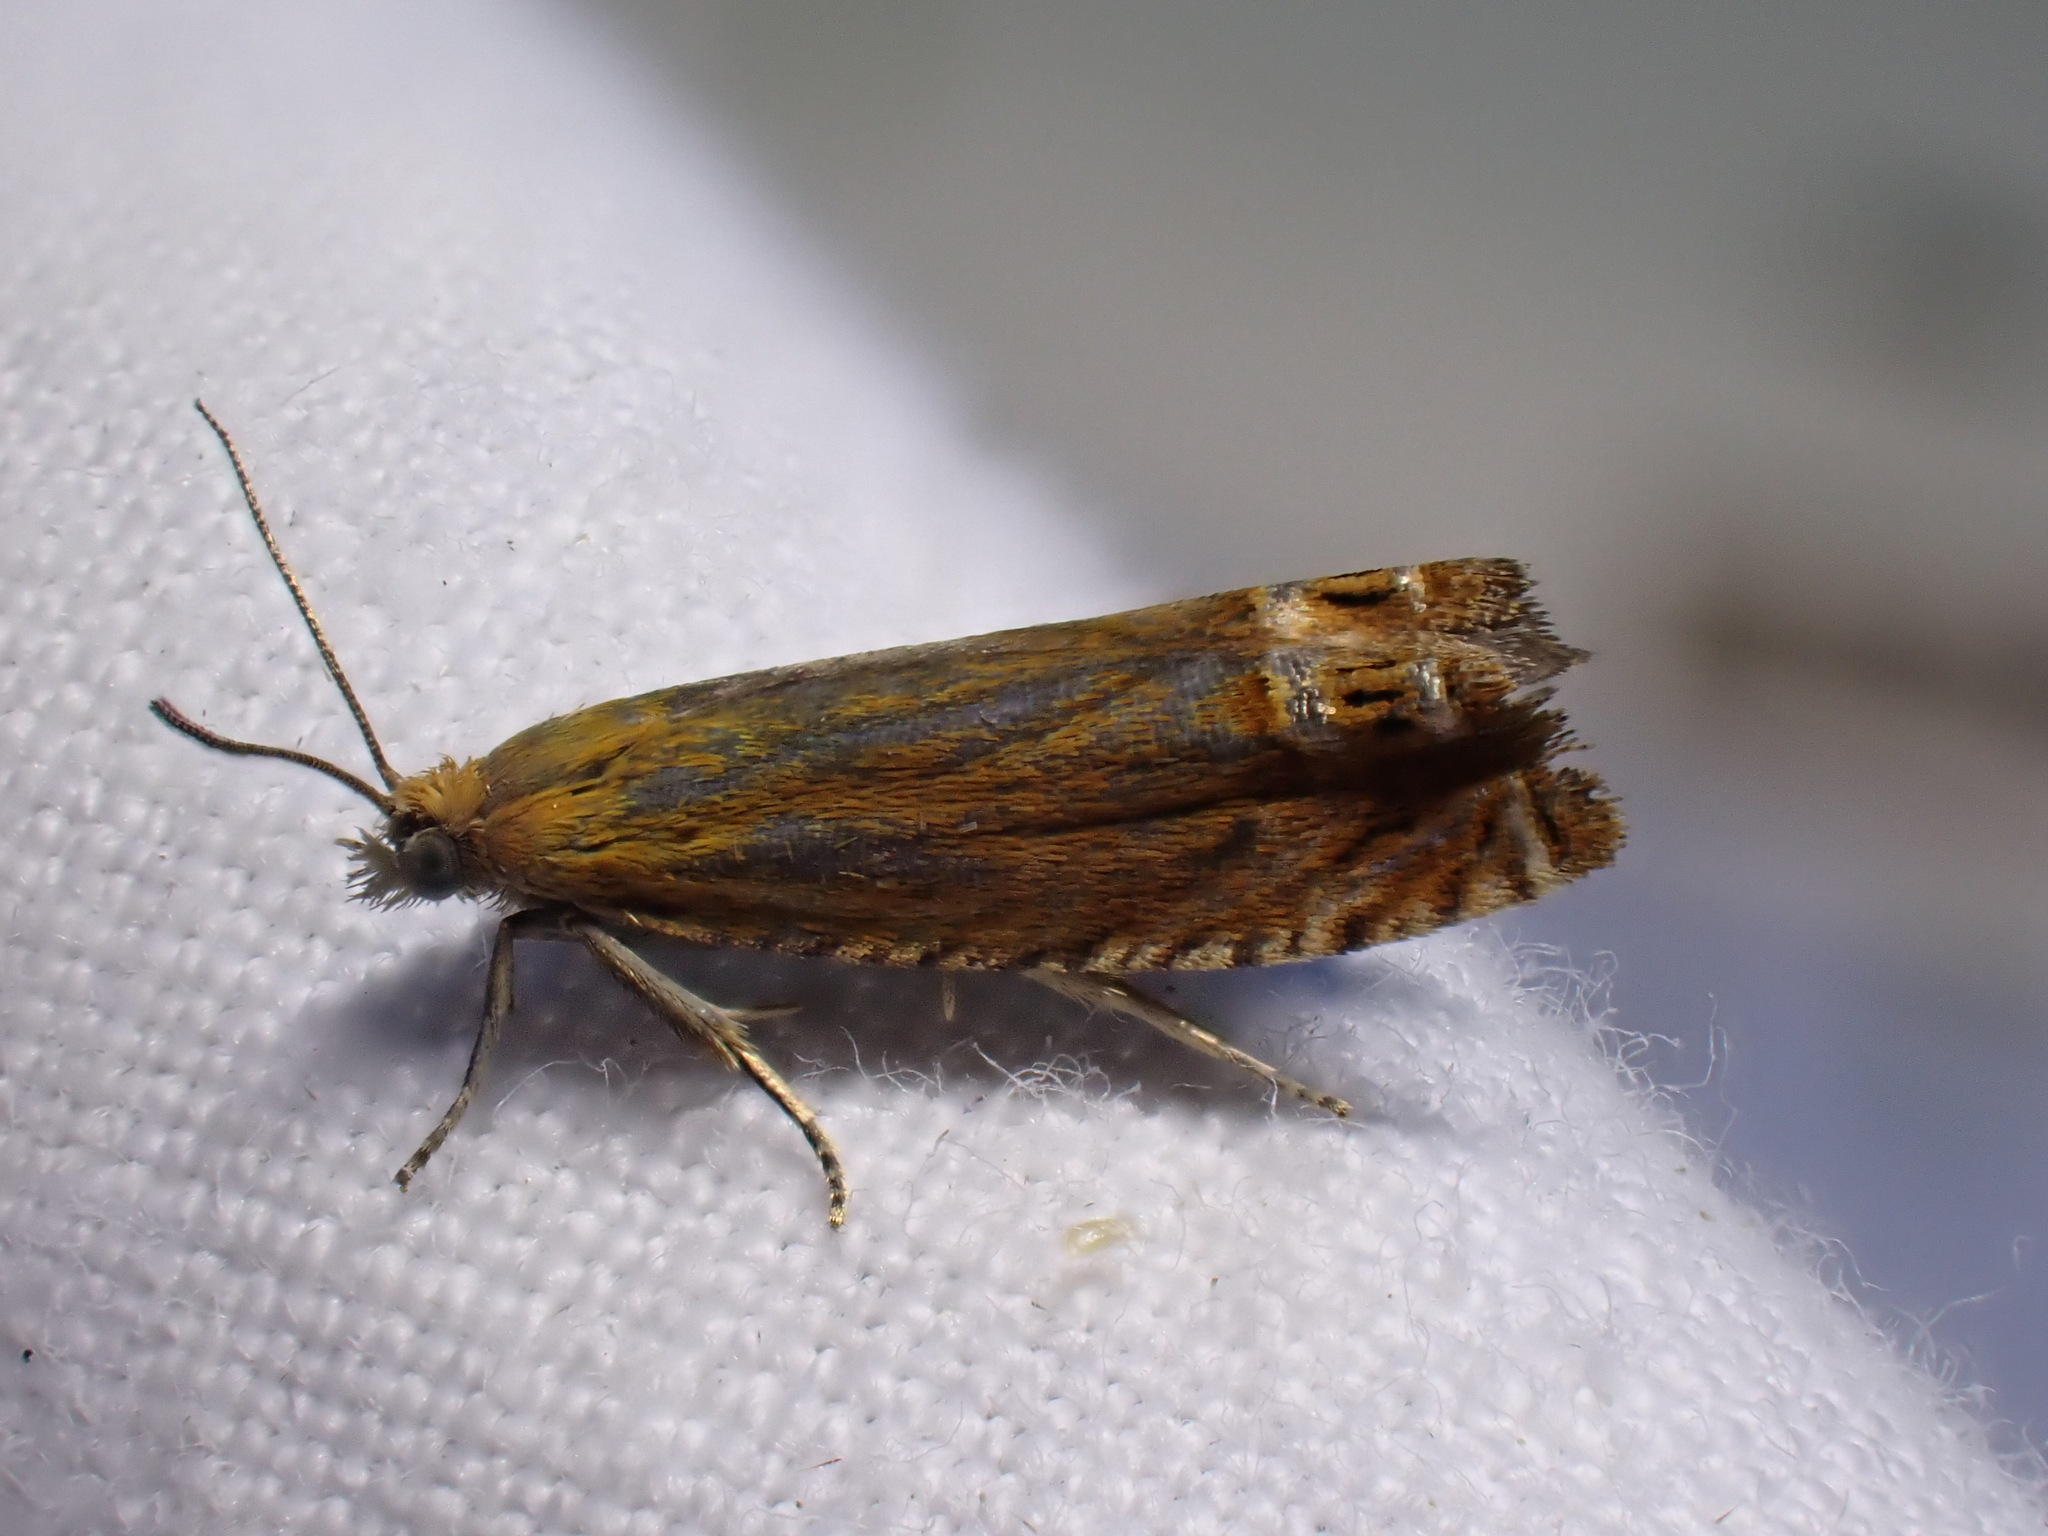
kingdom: Animalia
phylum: Arthropoda
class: Insecta
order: Lepidoptera
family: Tortricidae
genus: Lathronympha
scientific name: Lathronympha strigana
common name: Red piercer
